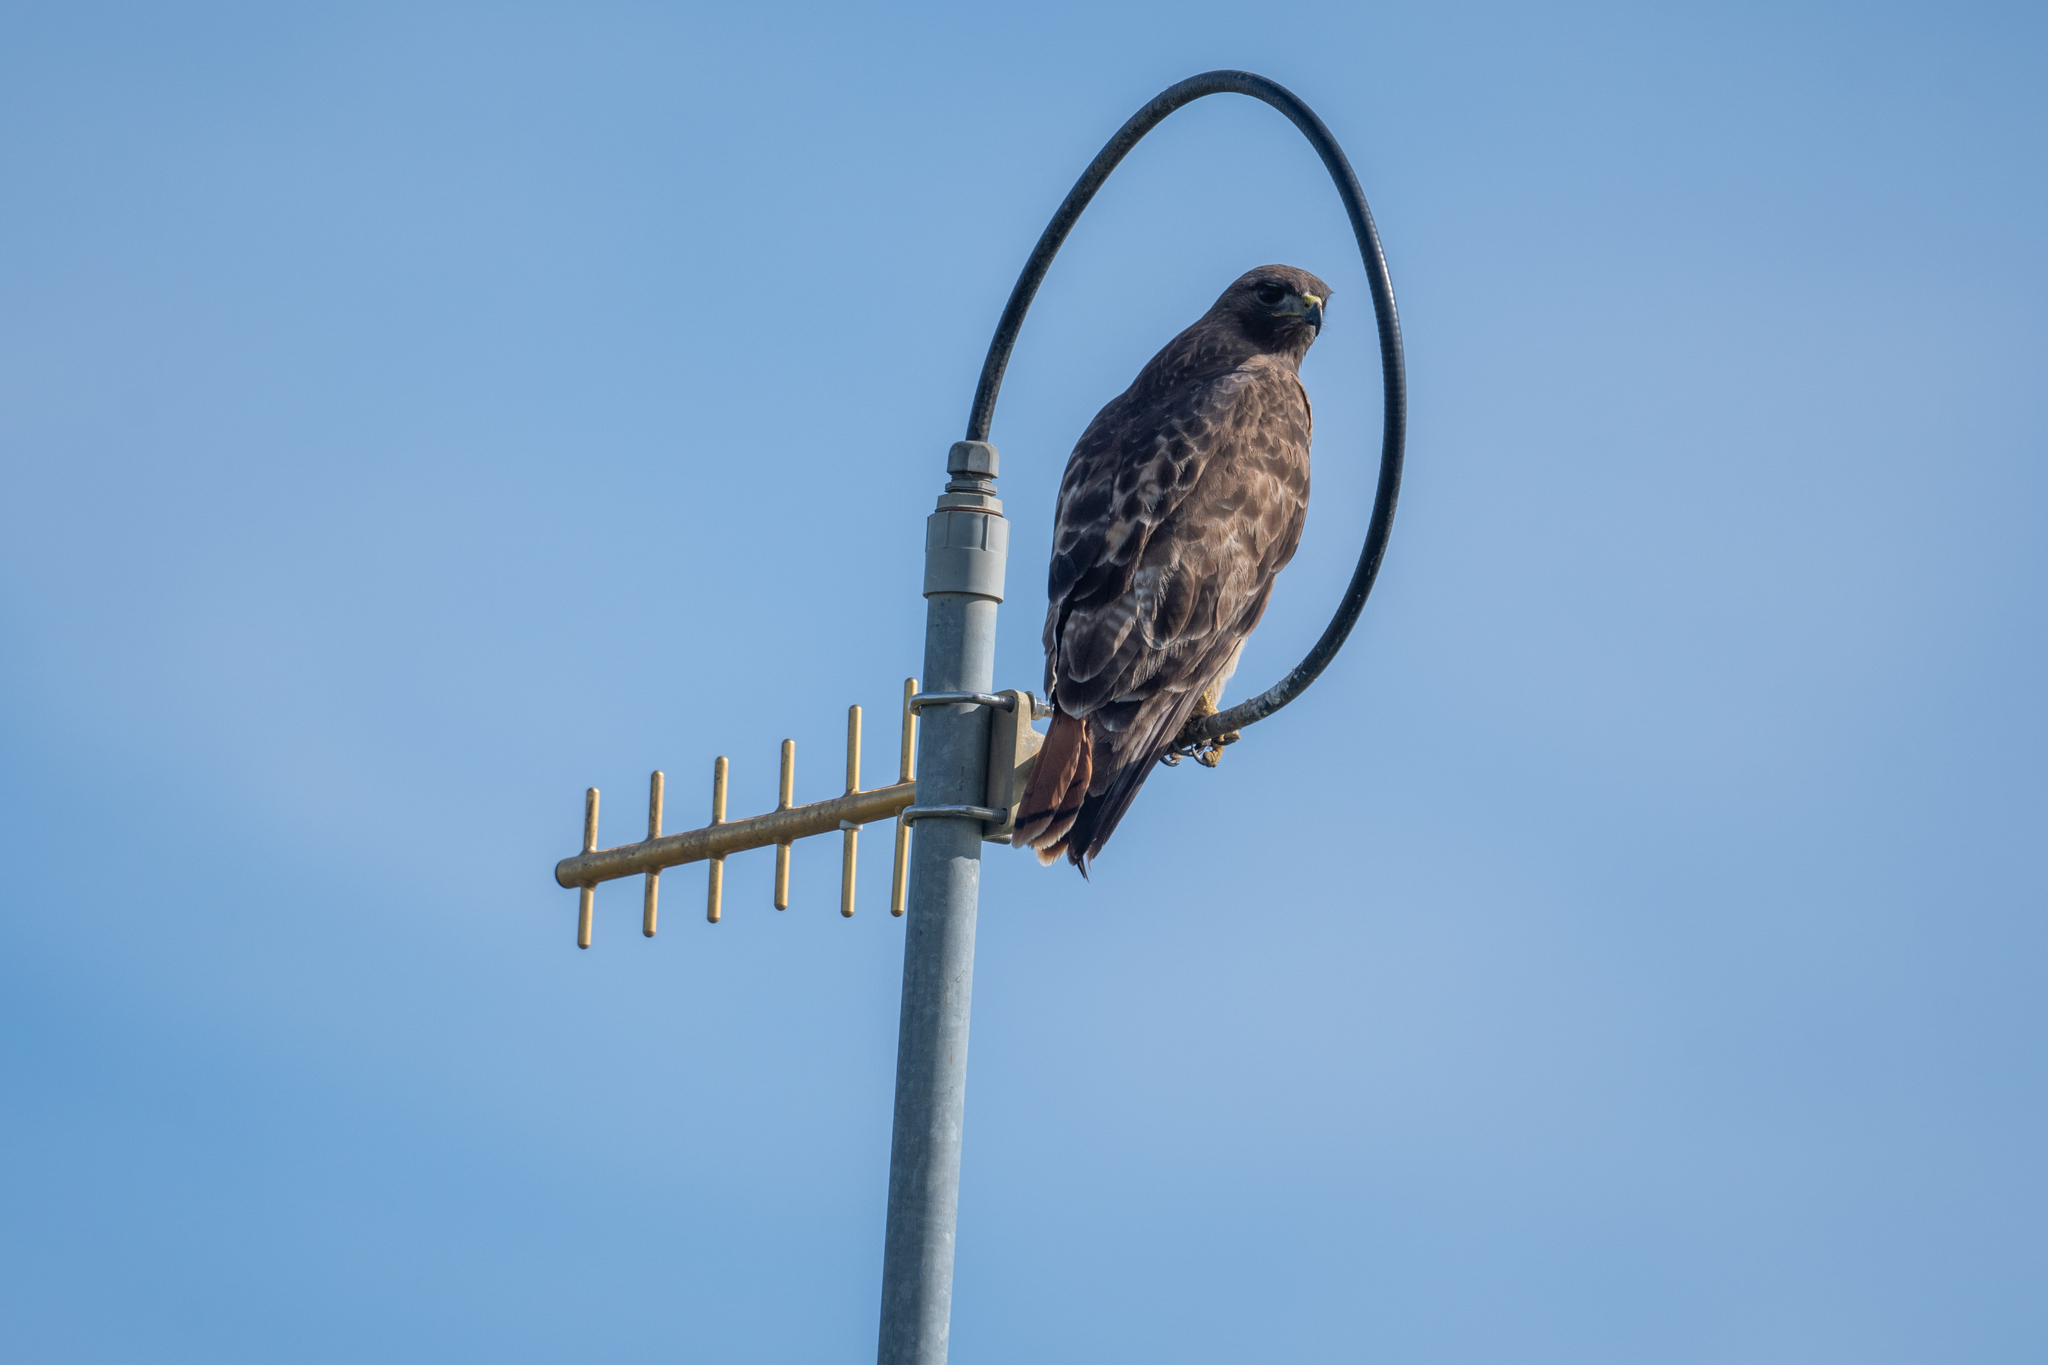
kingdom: Animalia
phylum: Chordata
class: Aves
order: Accipitriformes
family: Accipitridae
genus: Buteo
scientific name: Buteo jamaicensis
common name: Red-tailed hawk
